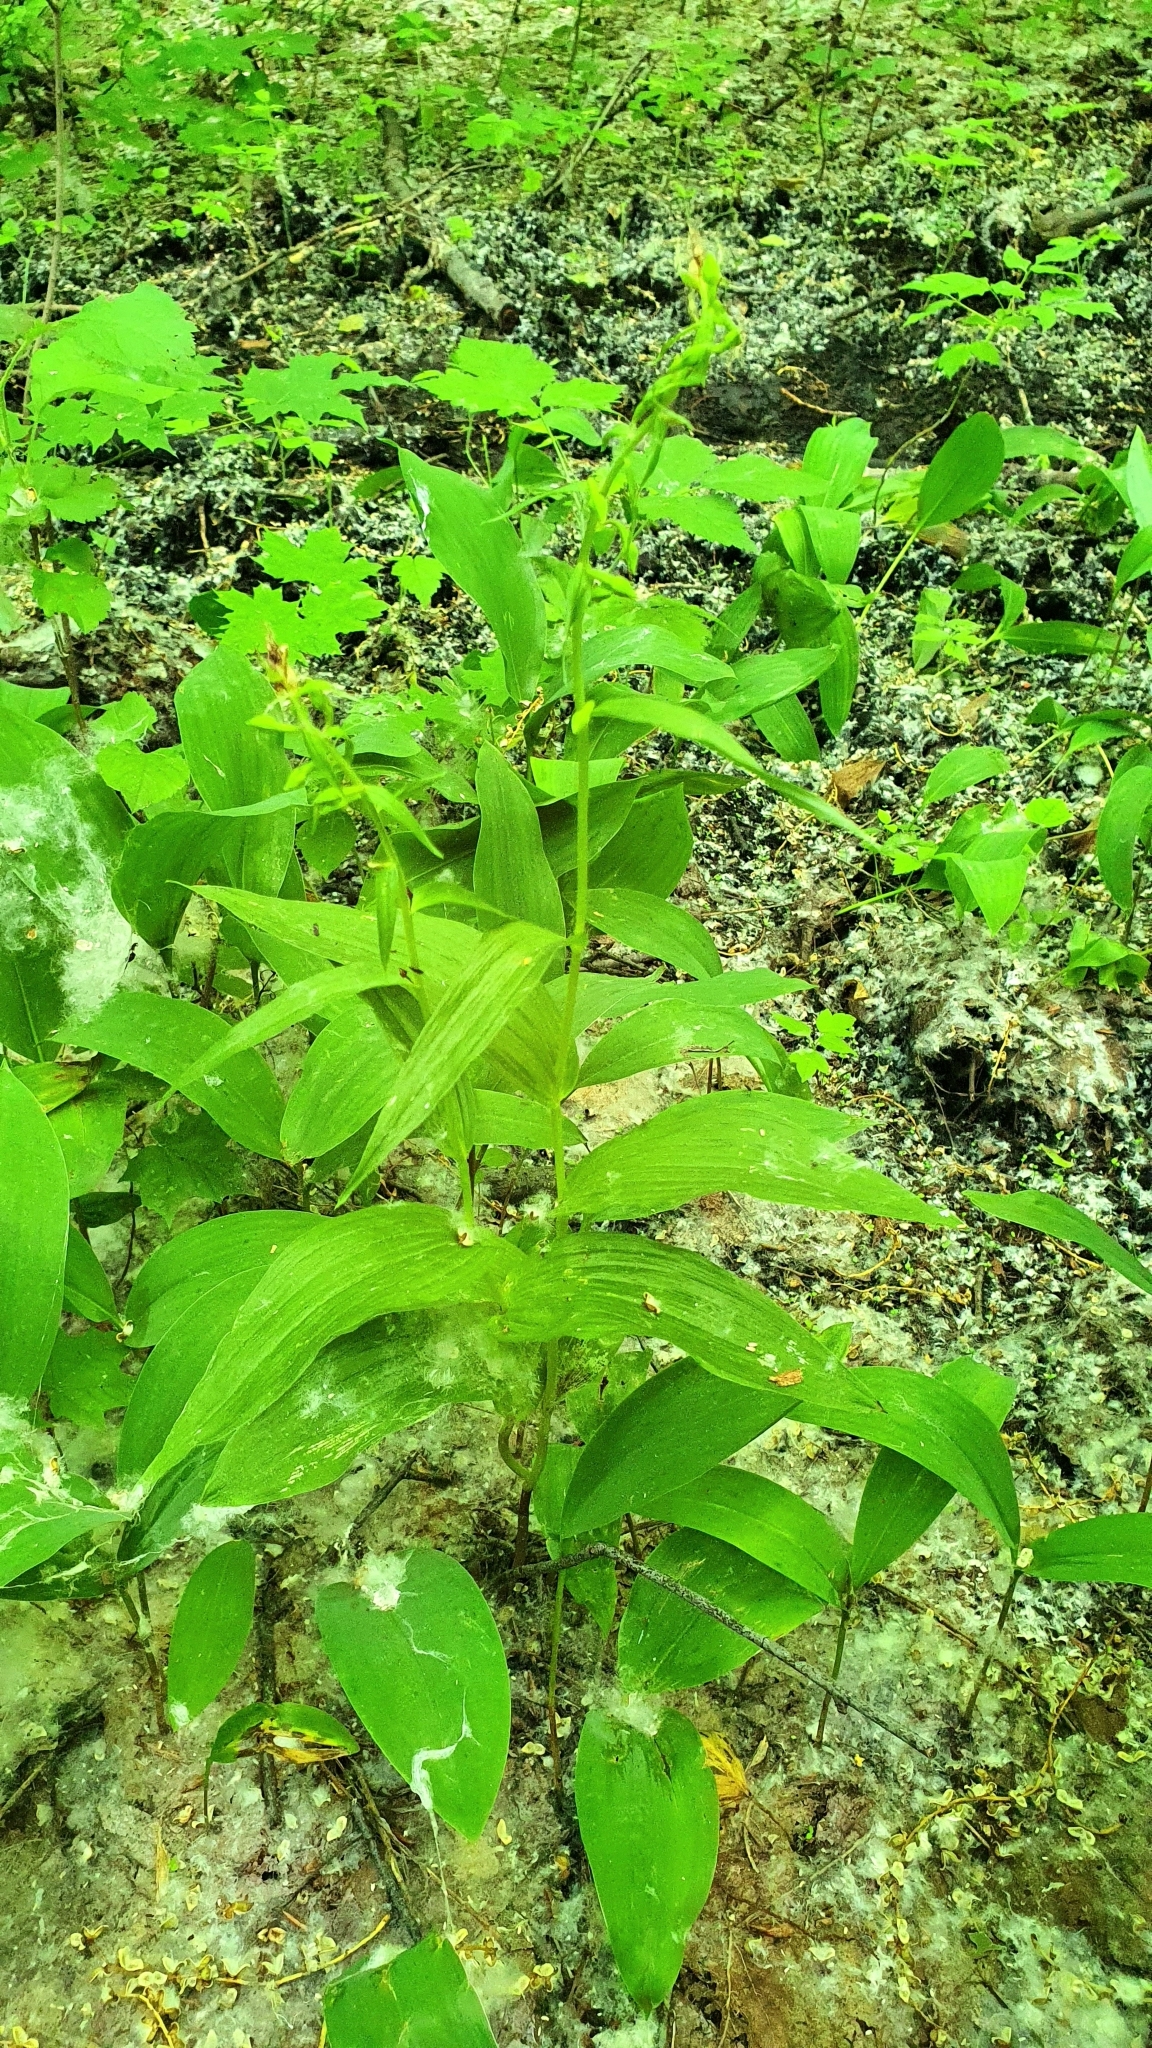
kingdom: Plantae
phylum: Tracheophyta
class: Liliopsida
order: Asparagales
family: Orchidaceae
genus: Epipactis
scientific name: Epipactis helleborine
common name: Broad-leaved helleborine
